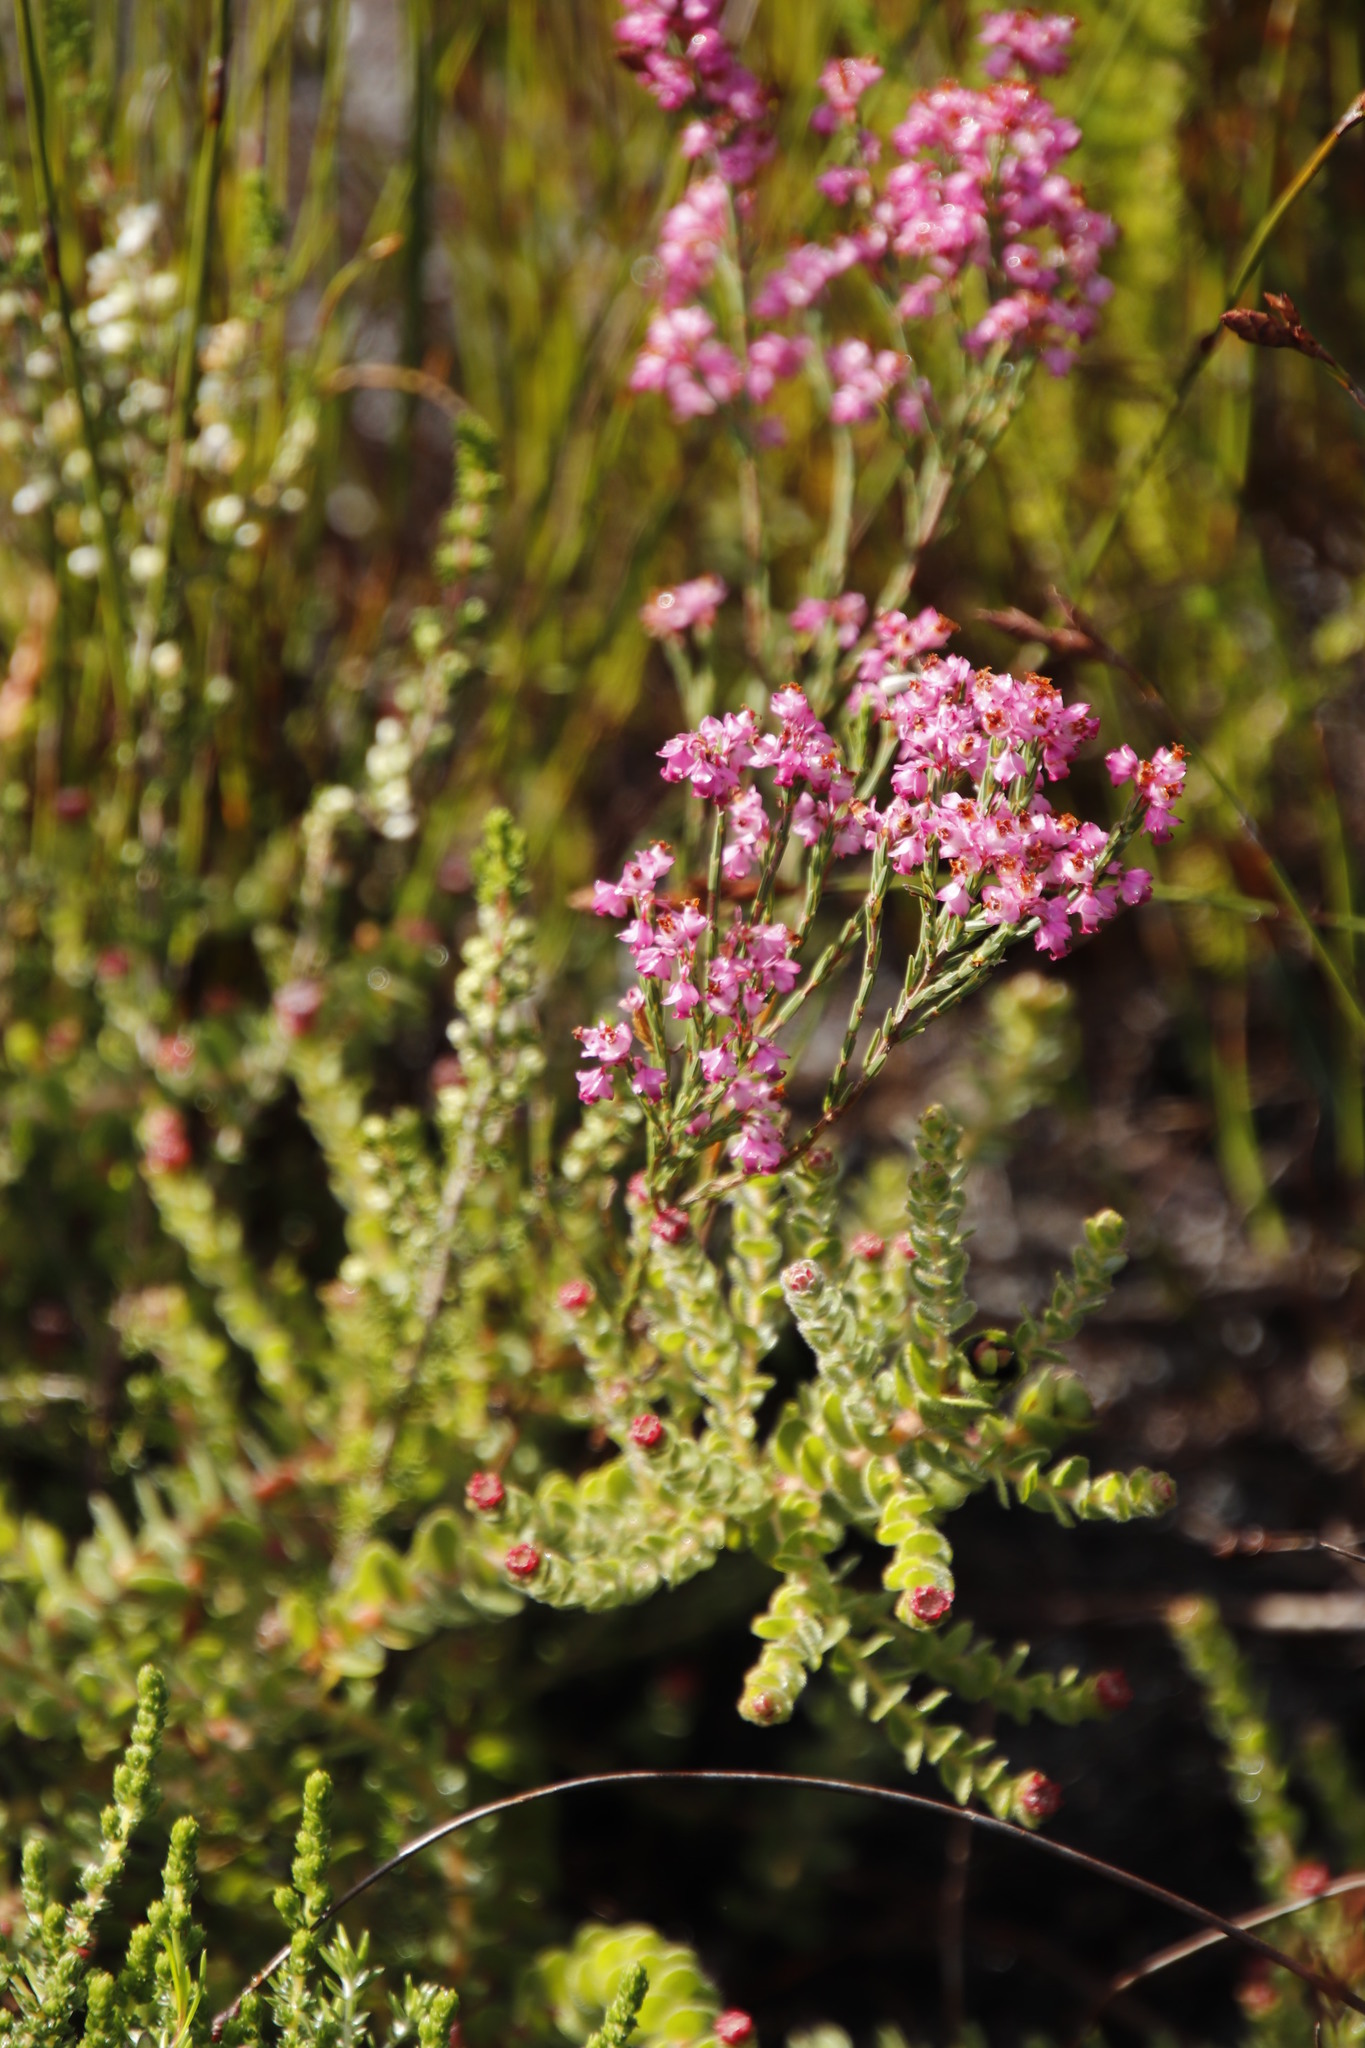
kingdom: Plantae
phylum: Tracheophyta
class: Magnoliopsida
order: Ericales
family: Ericaceae
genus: Erica
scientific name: Erica corifolia
